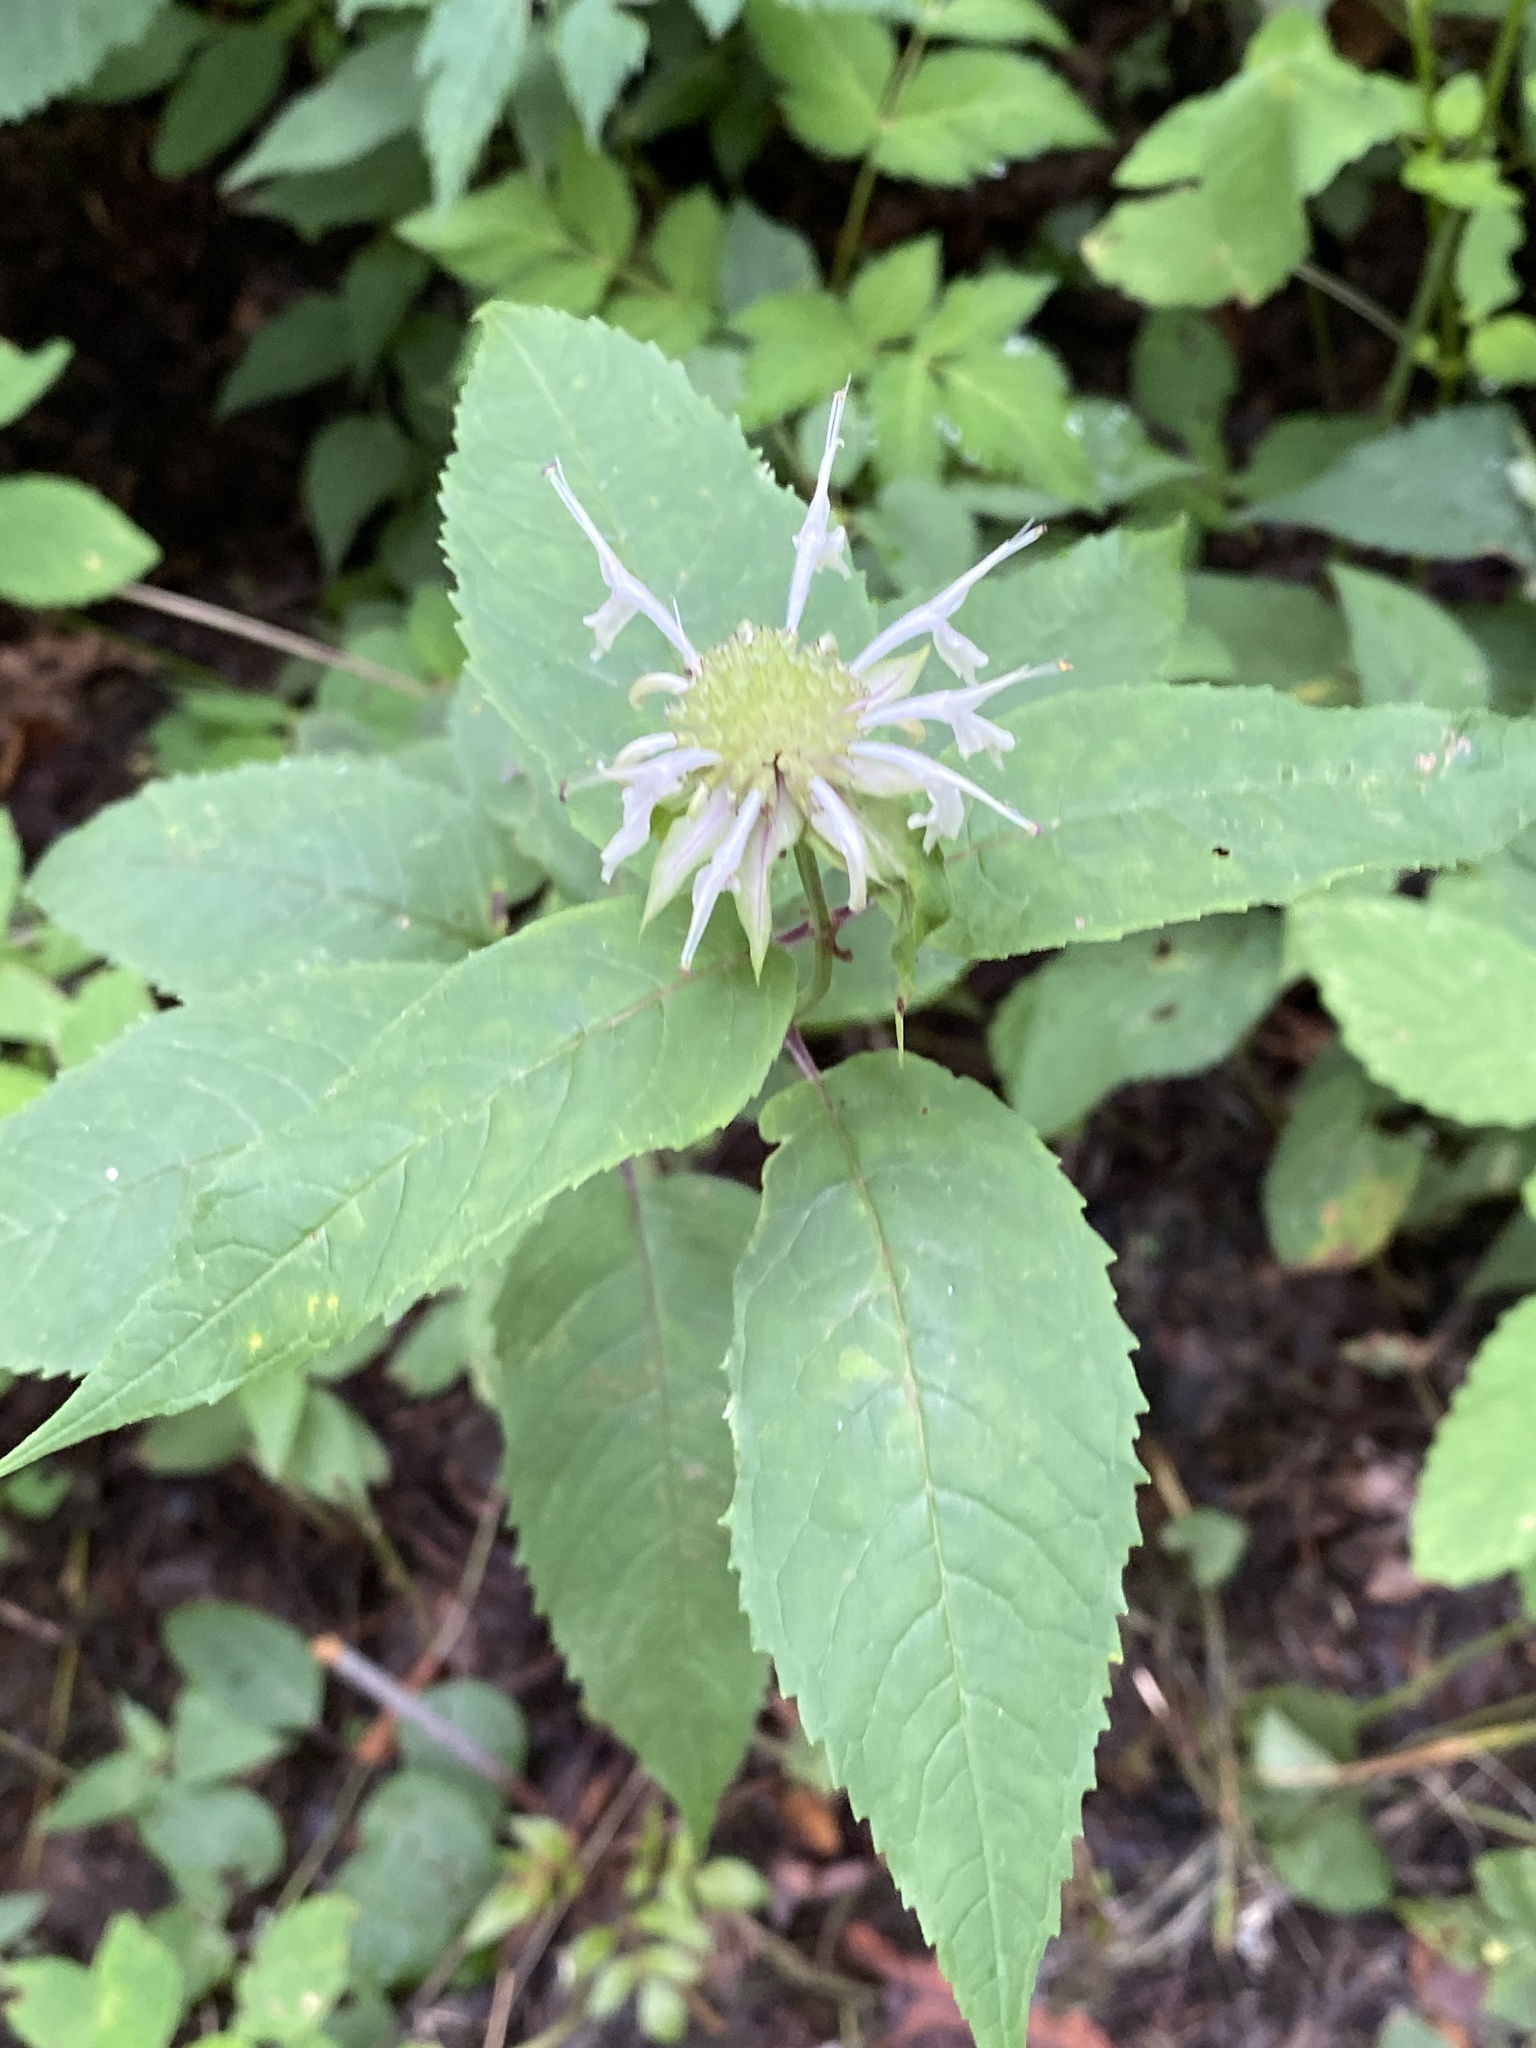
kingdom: Plantae
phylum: Tracheophyta
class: Magnoliopsida
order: Lamiales
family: Lamiaceae
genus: Monarda
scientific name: Monarda clinopodia
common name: Basil beebalm
